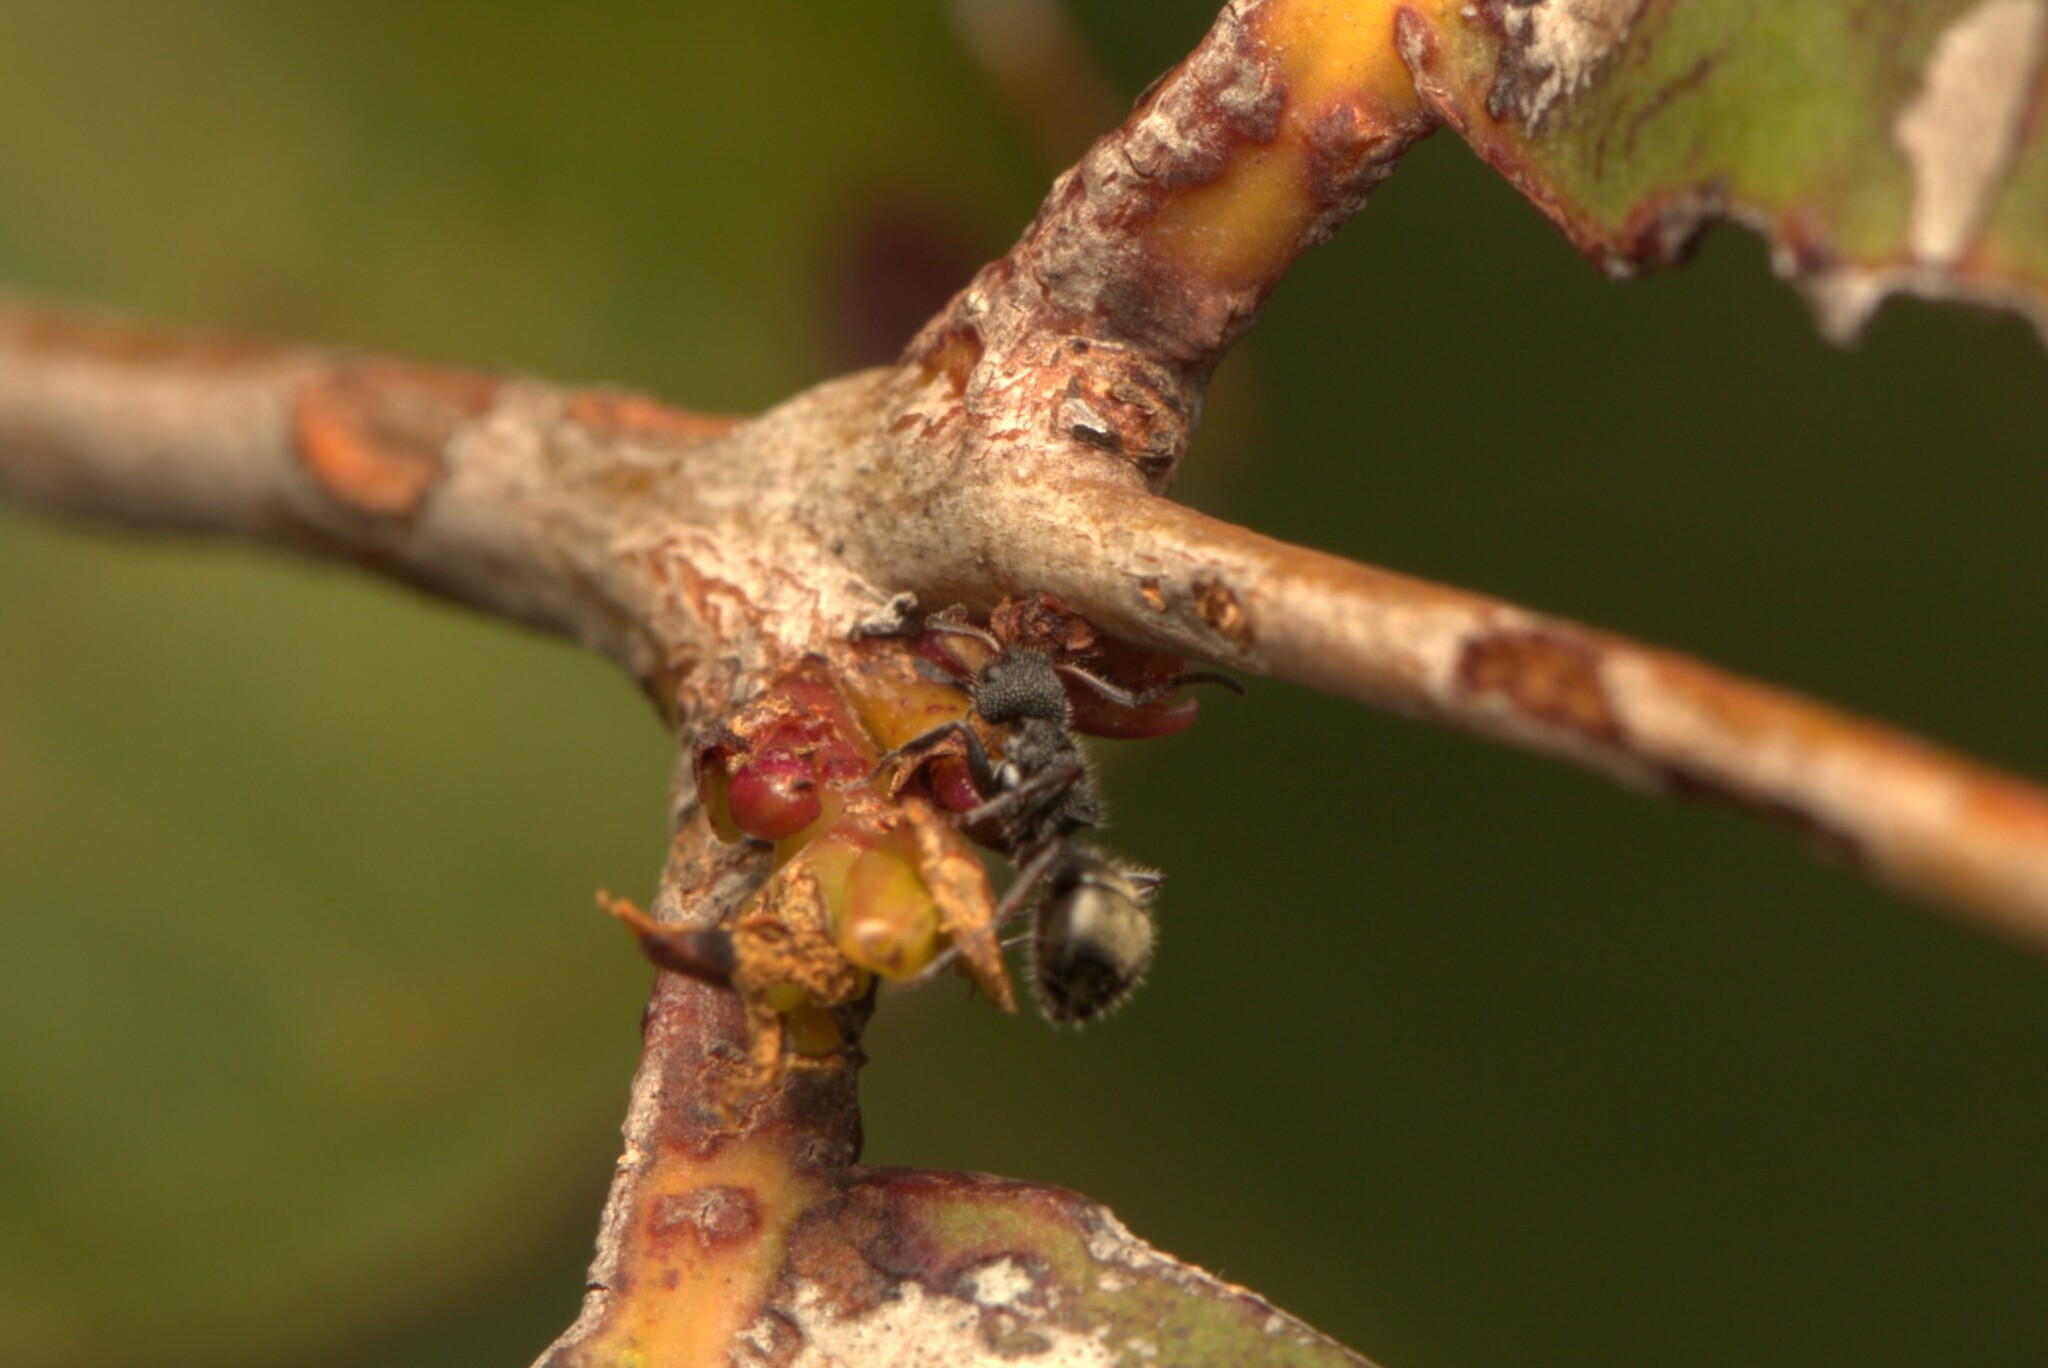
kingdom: Animalia
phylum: Arthropoda
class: Insecta
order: Hymenoptera
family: Formicidae
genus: Dolichoderus
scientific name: Dolichoderus scrobiculatus
